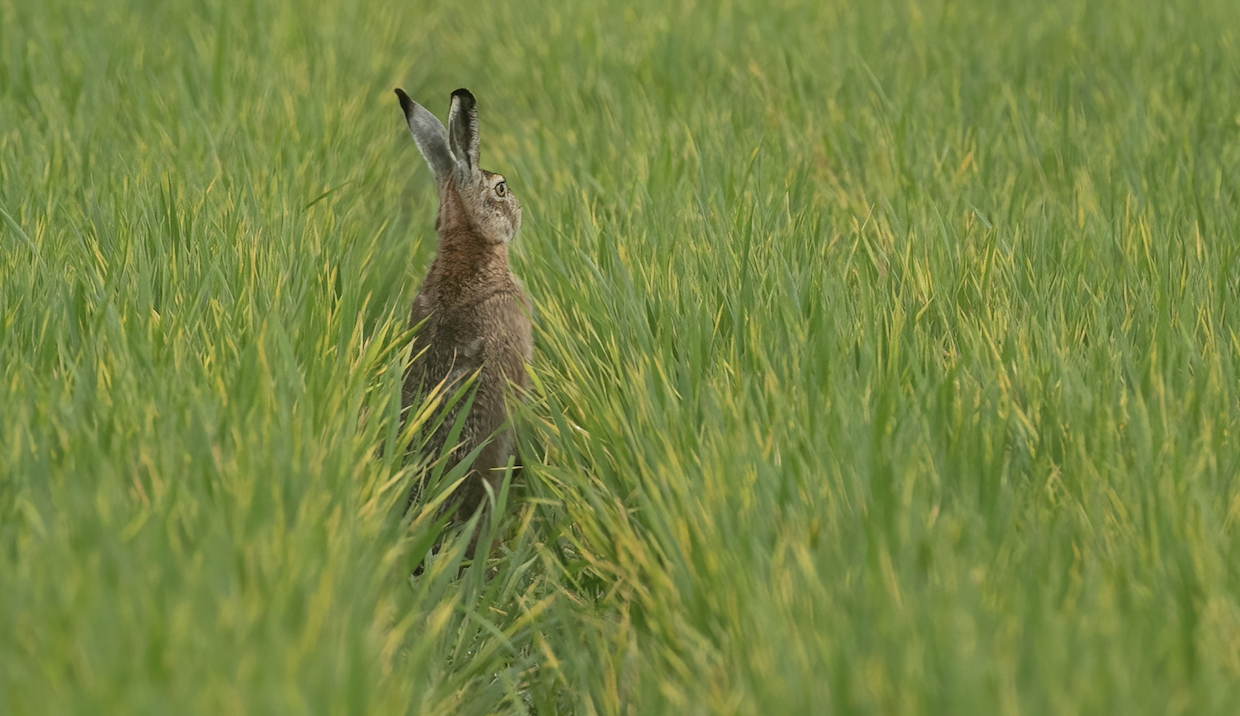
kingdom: Animalia
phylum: Chordata
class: Mammalia
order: Lagomorpha
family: Leporidae
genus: Lepus
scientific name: Lepus europaeus
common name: European hare
